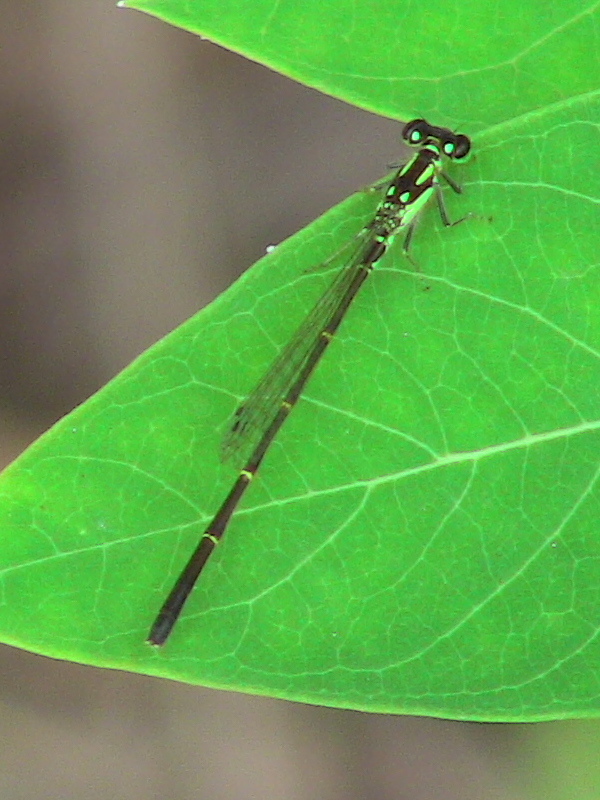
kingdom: Animalia
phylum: Arthropoda
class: Insecta
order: Odonata
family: Coenagrionidae
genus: Ischnura
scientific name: Ischnura posita
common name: Fragile forktail
